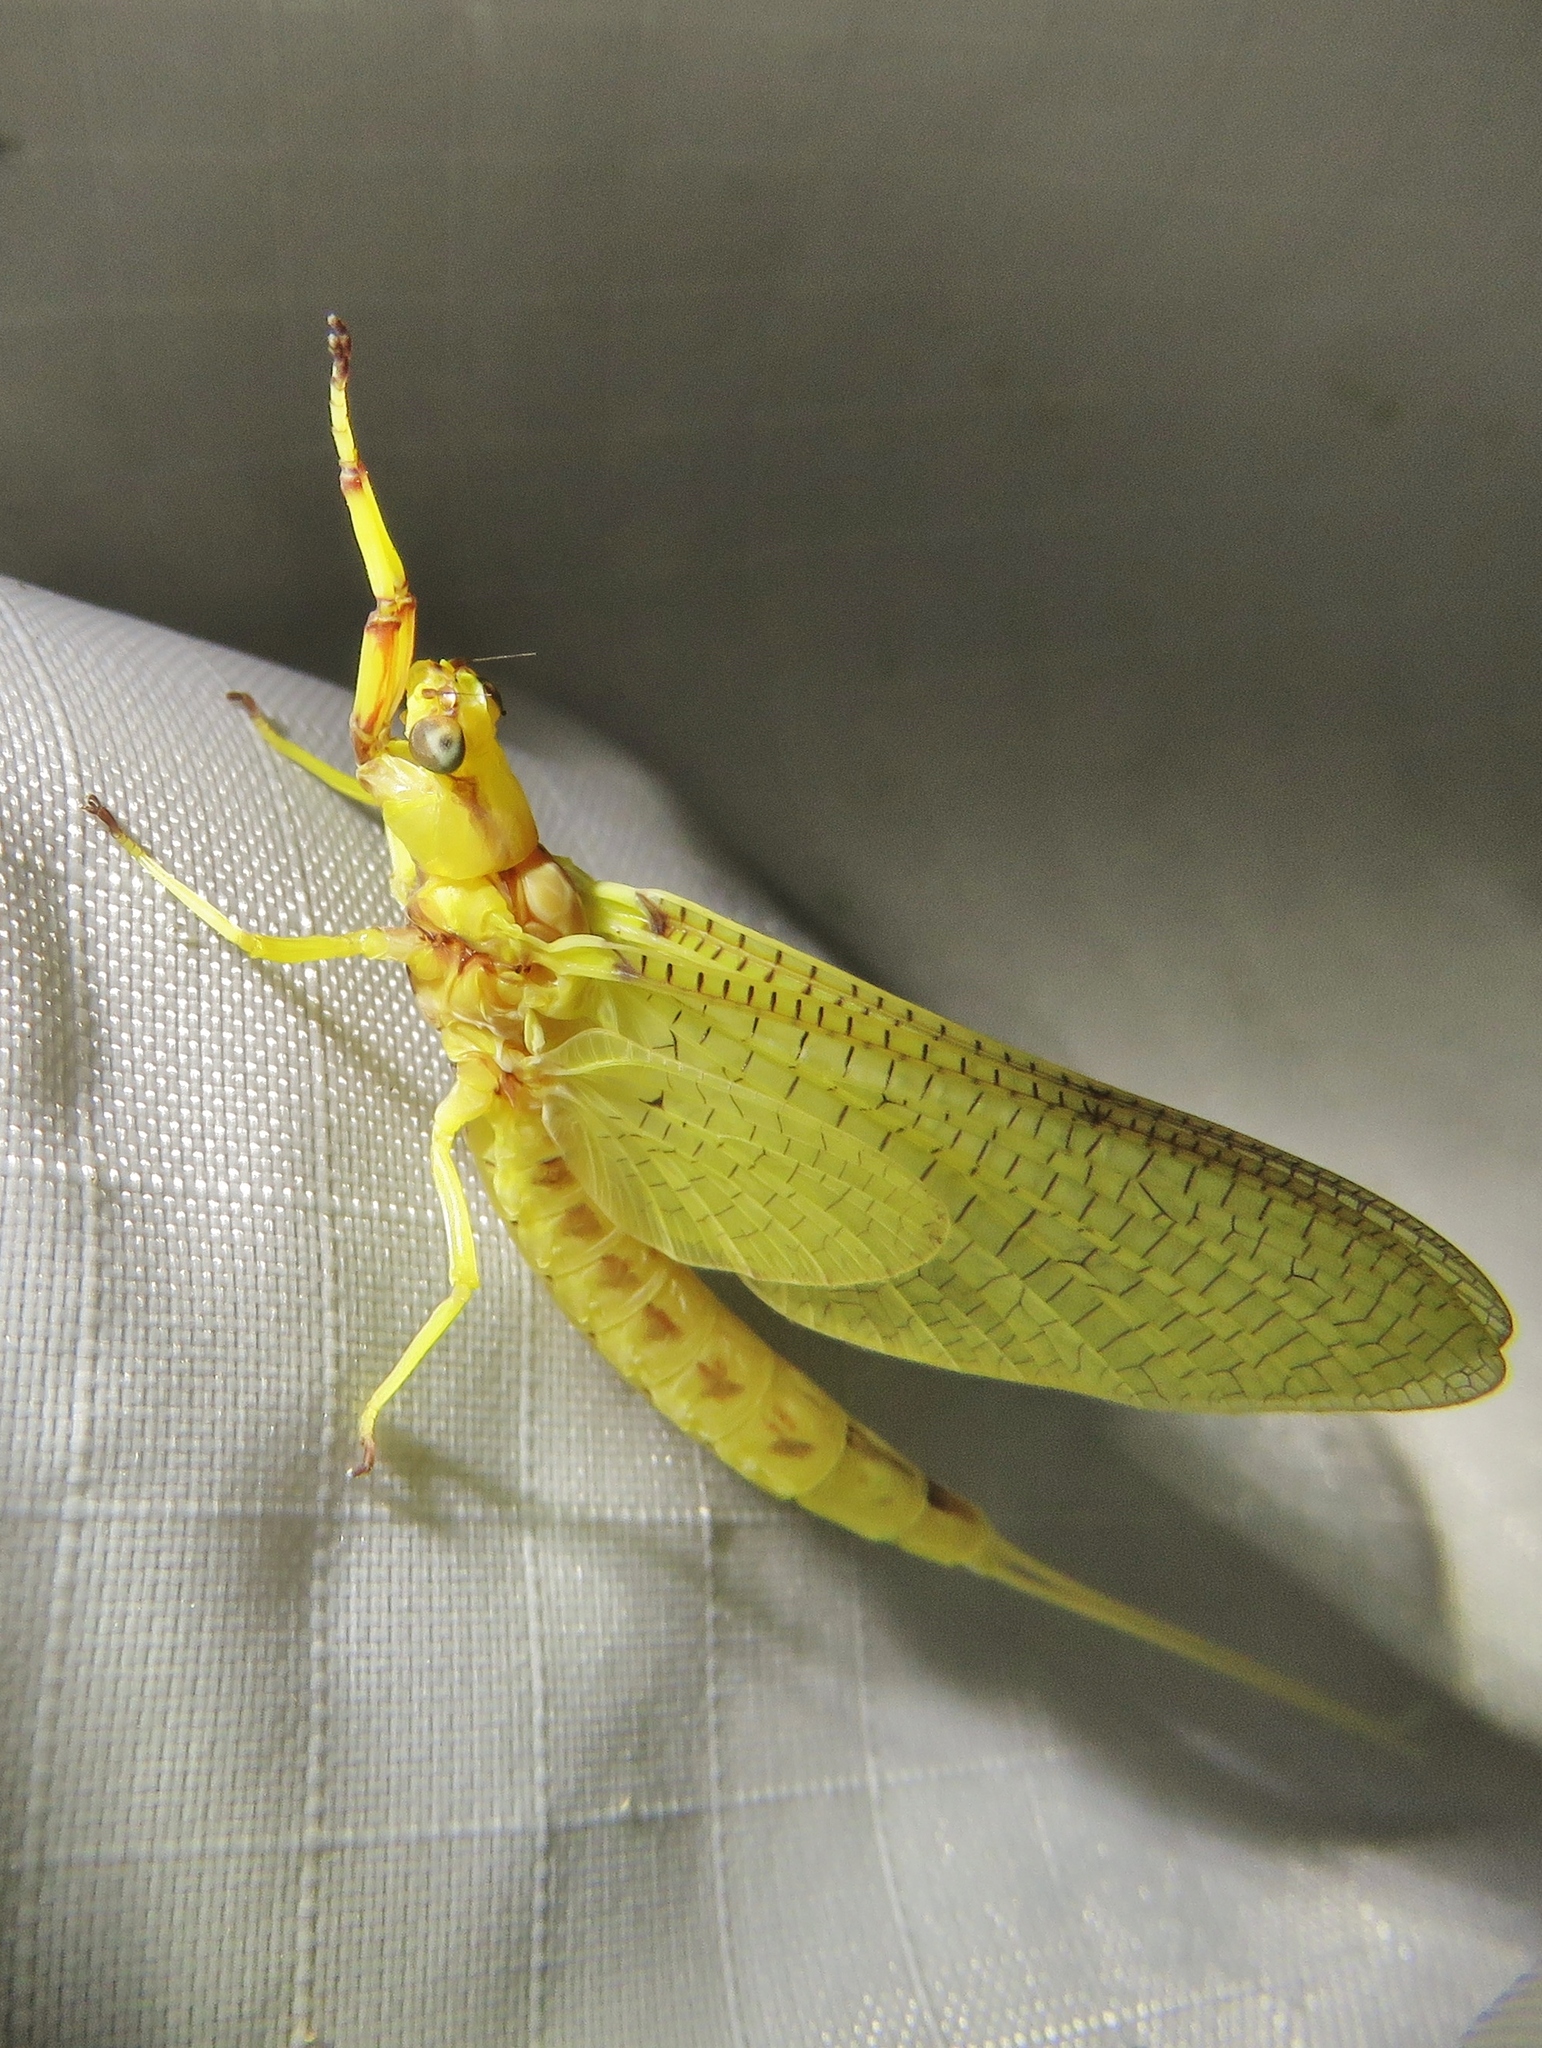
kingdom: Animalia
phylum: Arthropoda
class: Insecta
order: Ephemeroptera
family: Ephemeridae
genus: Hexagenia
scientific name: Hexagenia limbata
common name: Giant mayfly
